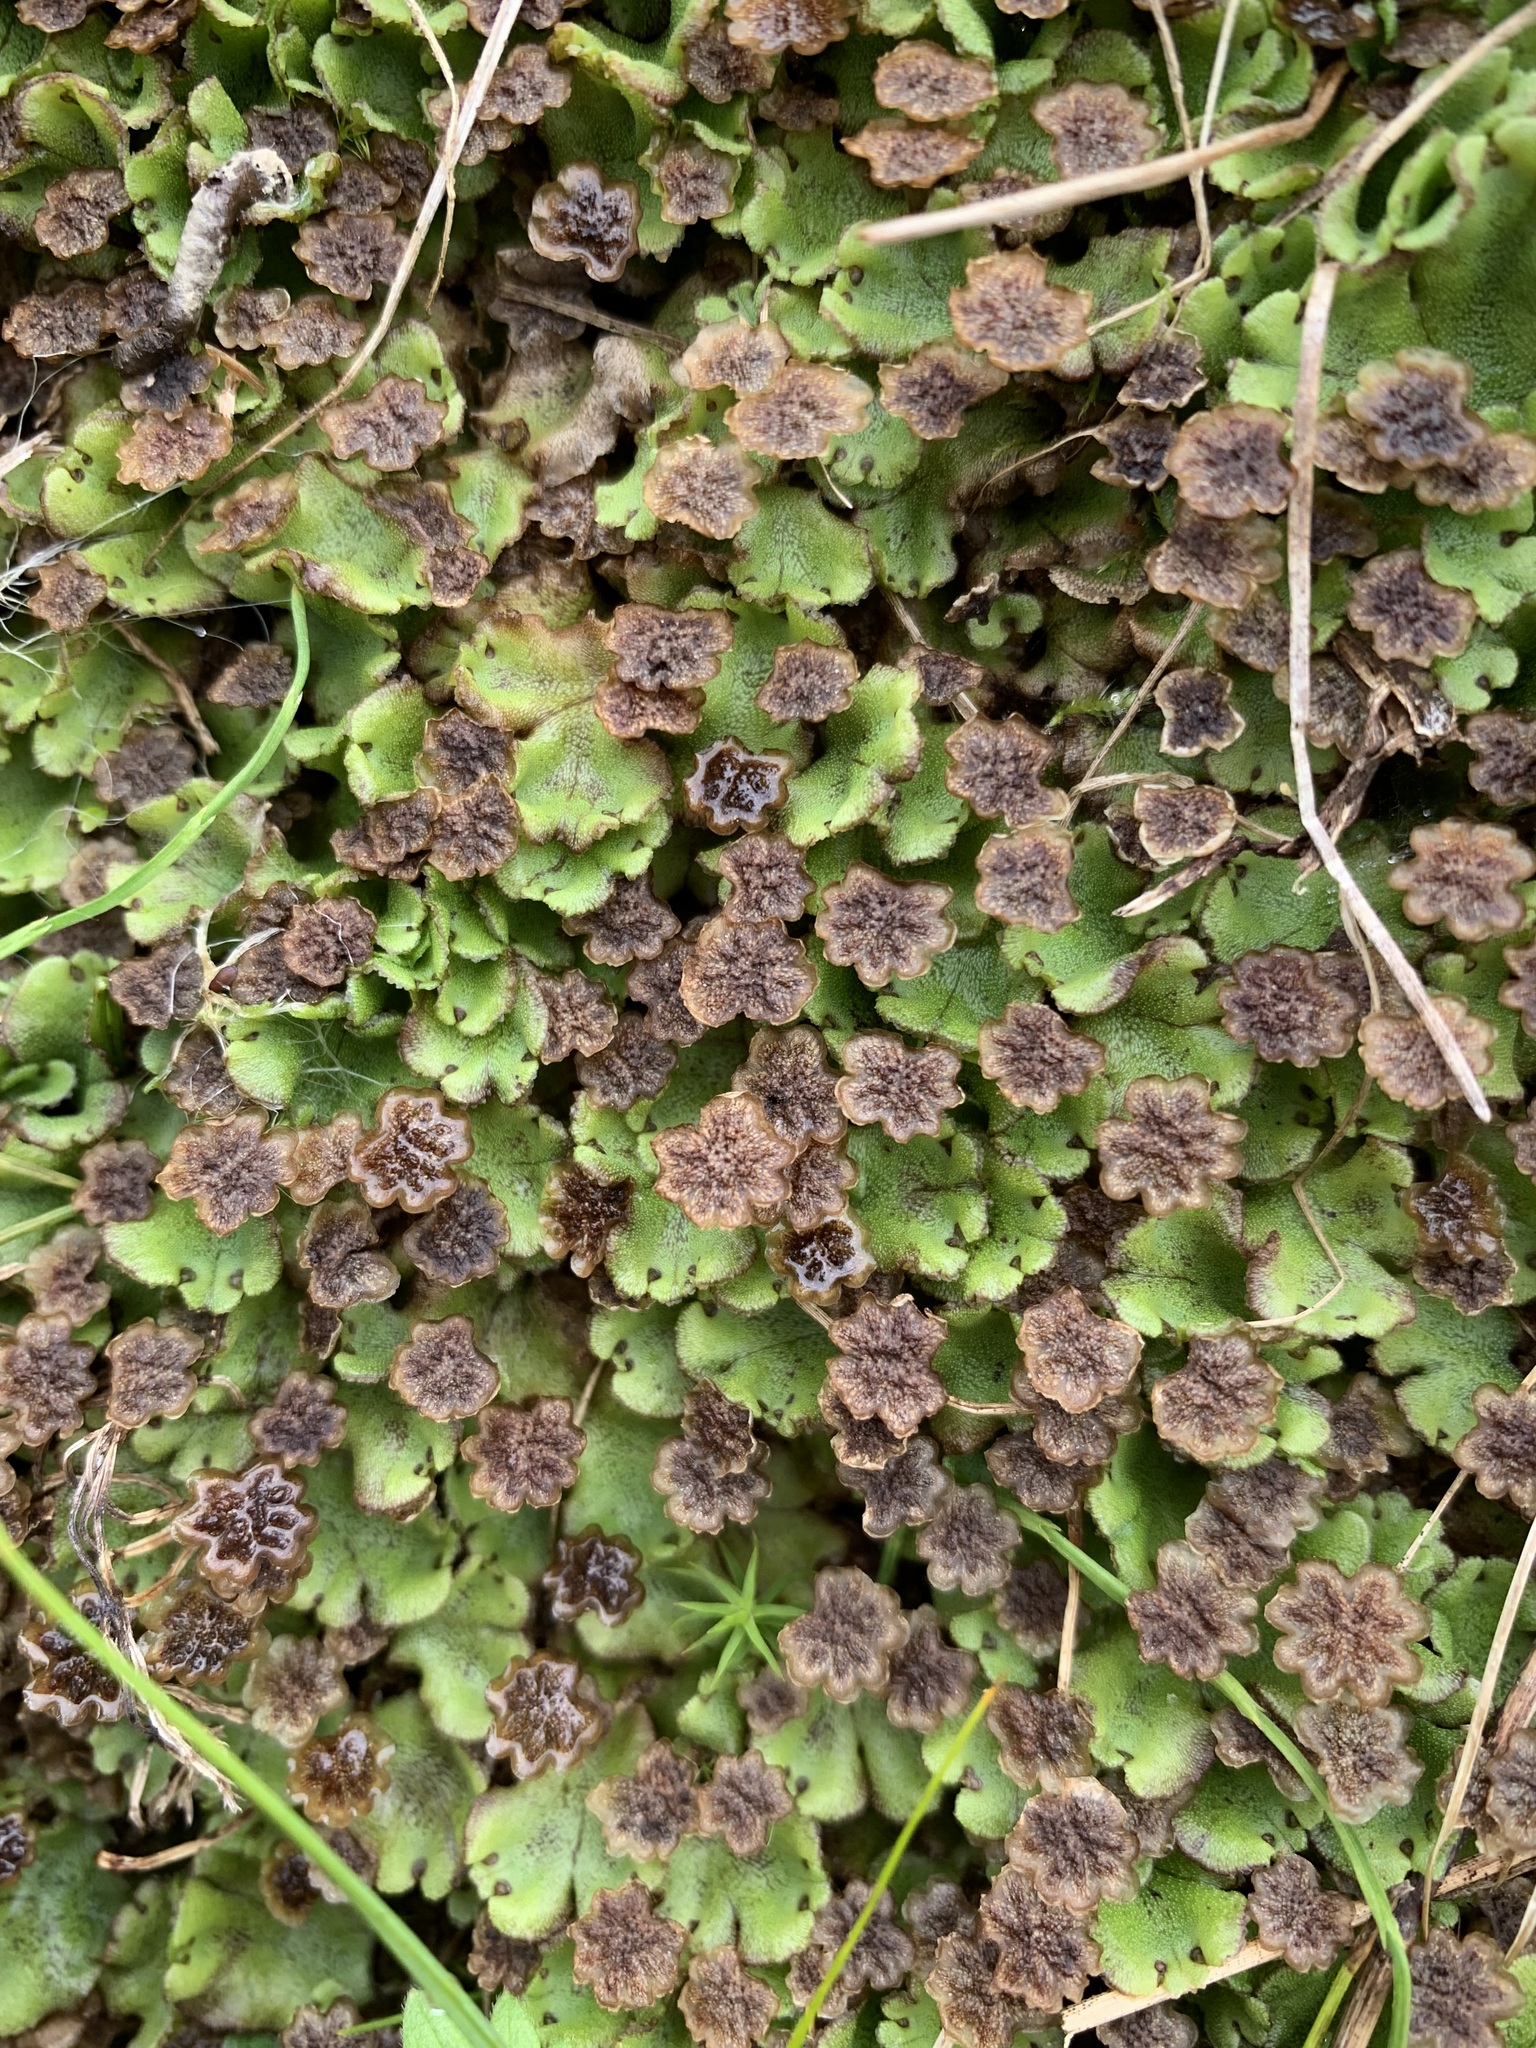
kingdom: Plantae
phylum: Marchantiophyta
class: Marchantiopsida
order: Marchantiales
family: Marchantiaceae
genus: Marchantia
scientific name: Marchantia polymorpha
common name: Common liverwort
